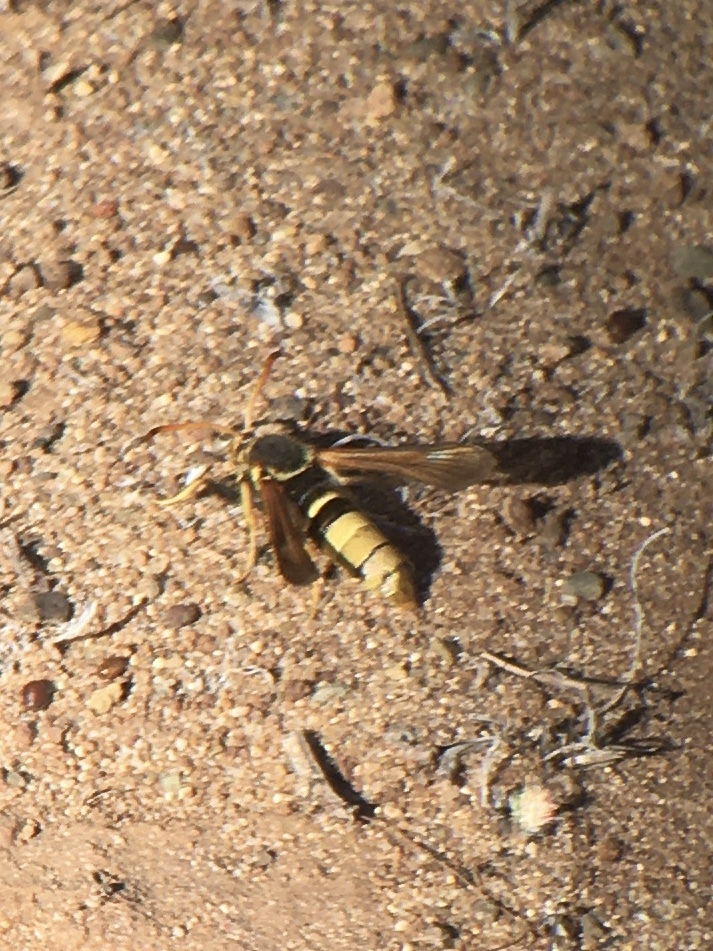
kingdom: Animalia
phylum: Arthropoda
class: Insecta
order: Lepidoptera
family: Sesiidae
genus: Paranthrene
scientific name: Paranthrene robiniae
